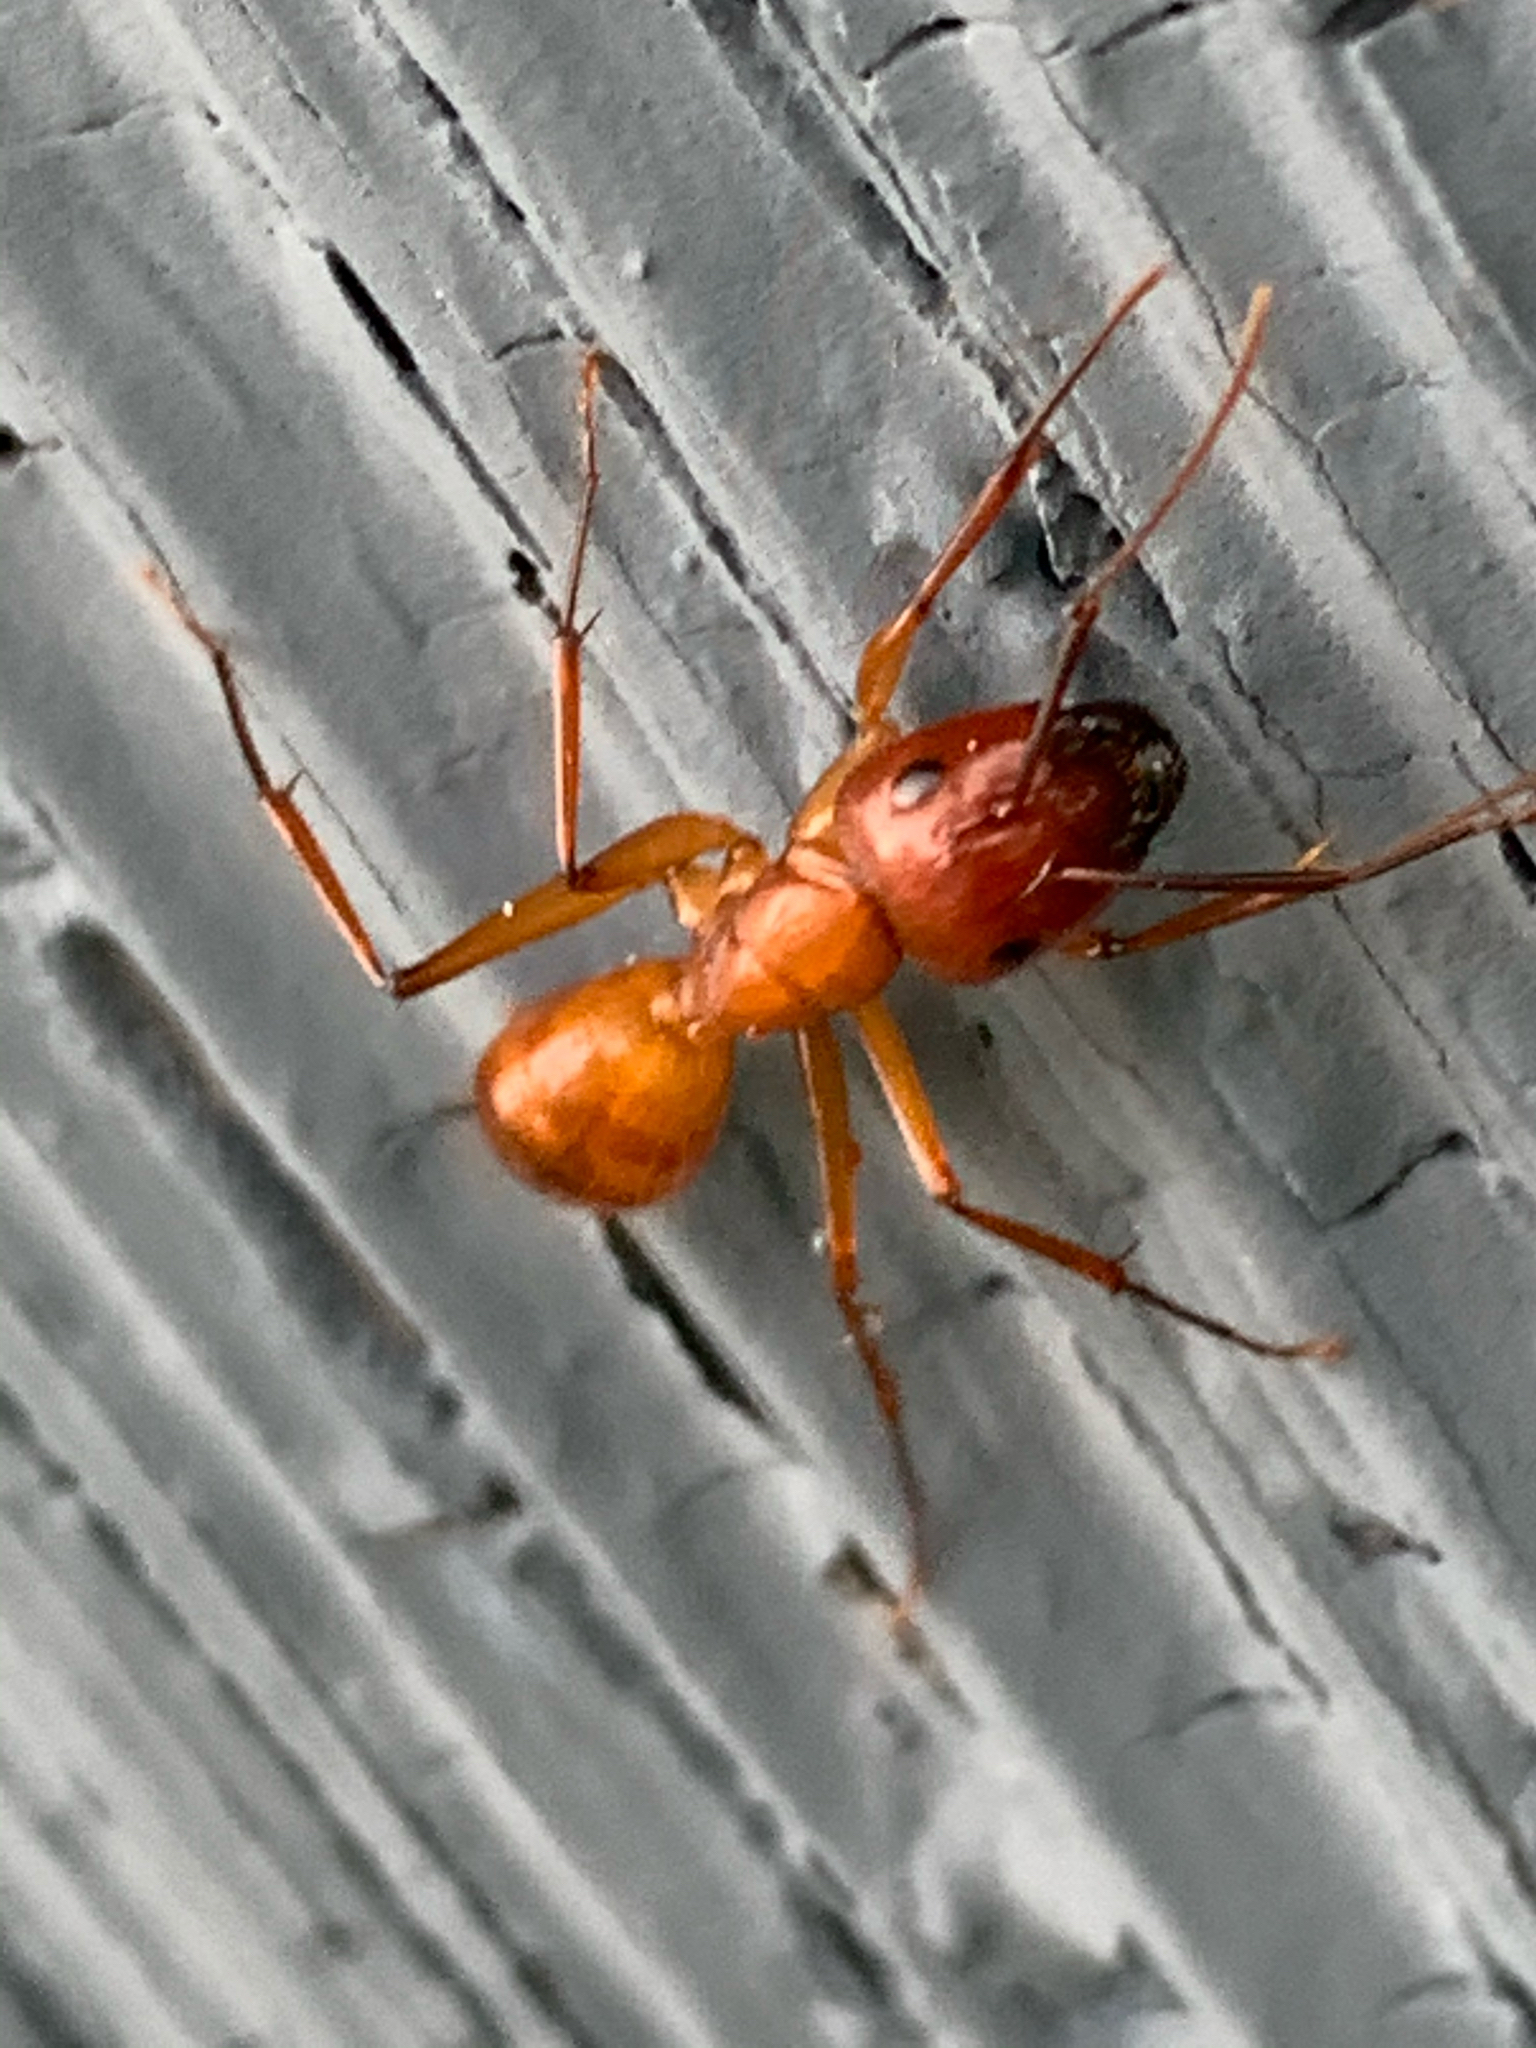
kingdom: Animalia
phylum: Arthropoda
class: Insecta
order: Hymenoptera
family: Formicidae
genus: Camponotus
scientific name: Camponotus castaneus
